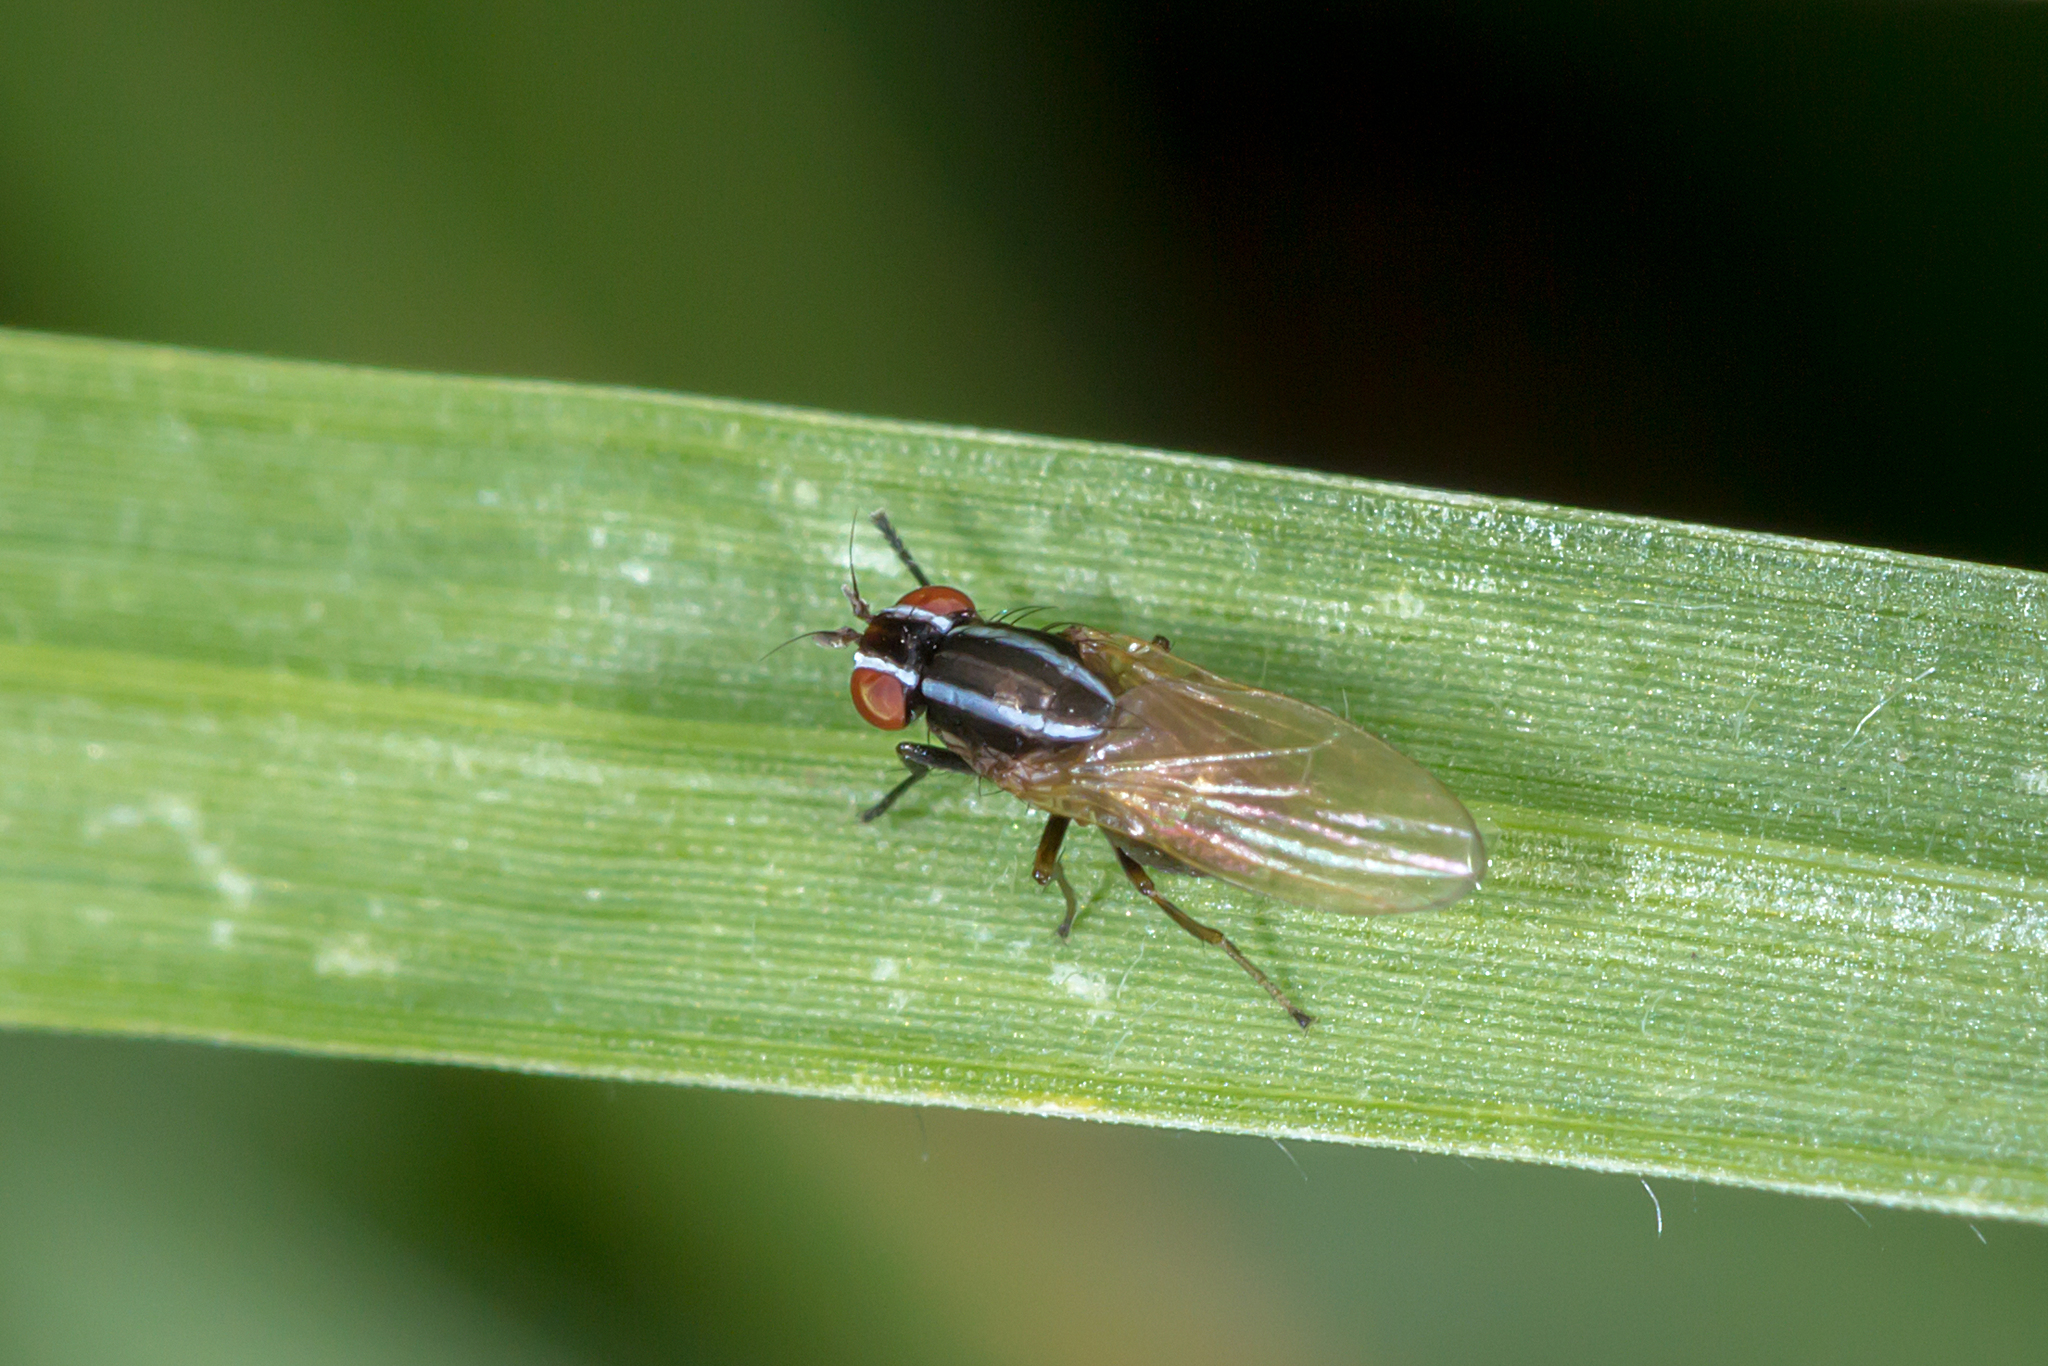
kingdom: Animalia
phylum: Arthropoda
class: Insecta
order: Diptera
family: Lauxaniidae
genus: Poecilohetaerus
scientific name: Poecilohetaerus aquilus
